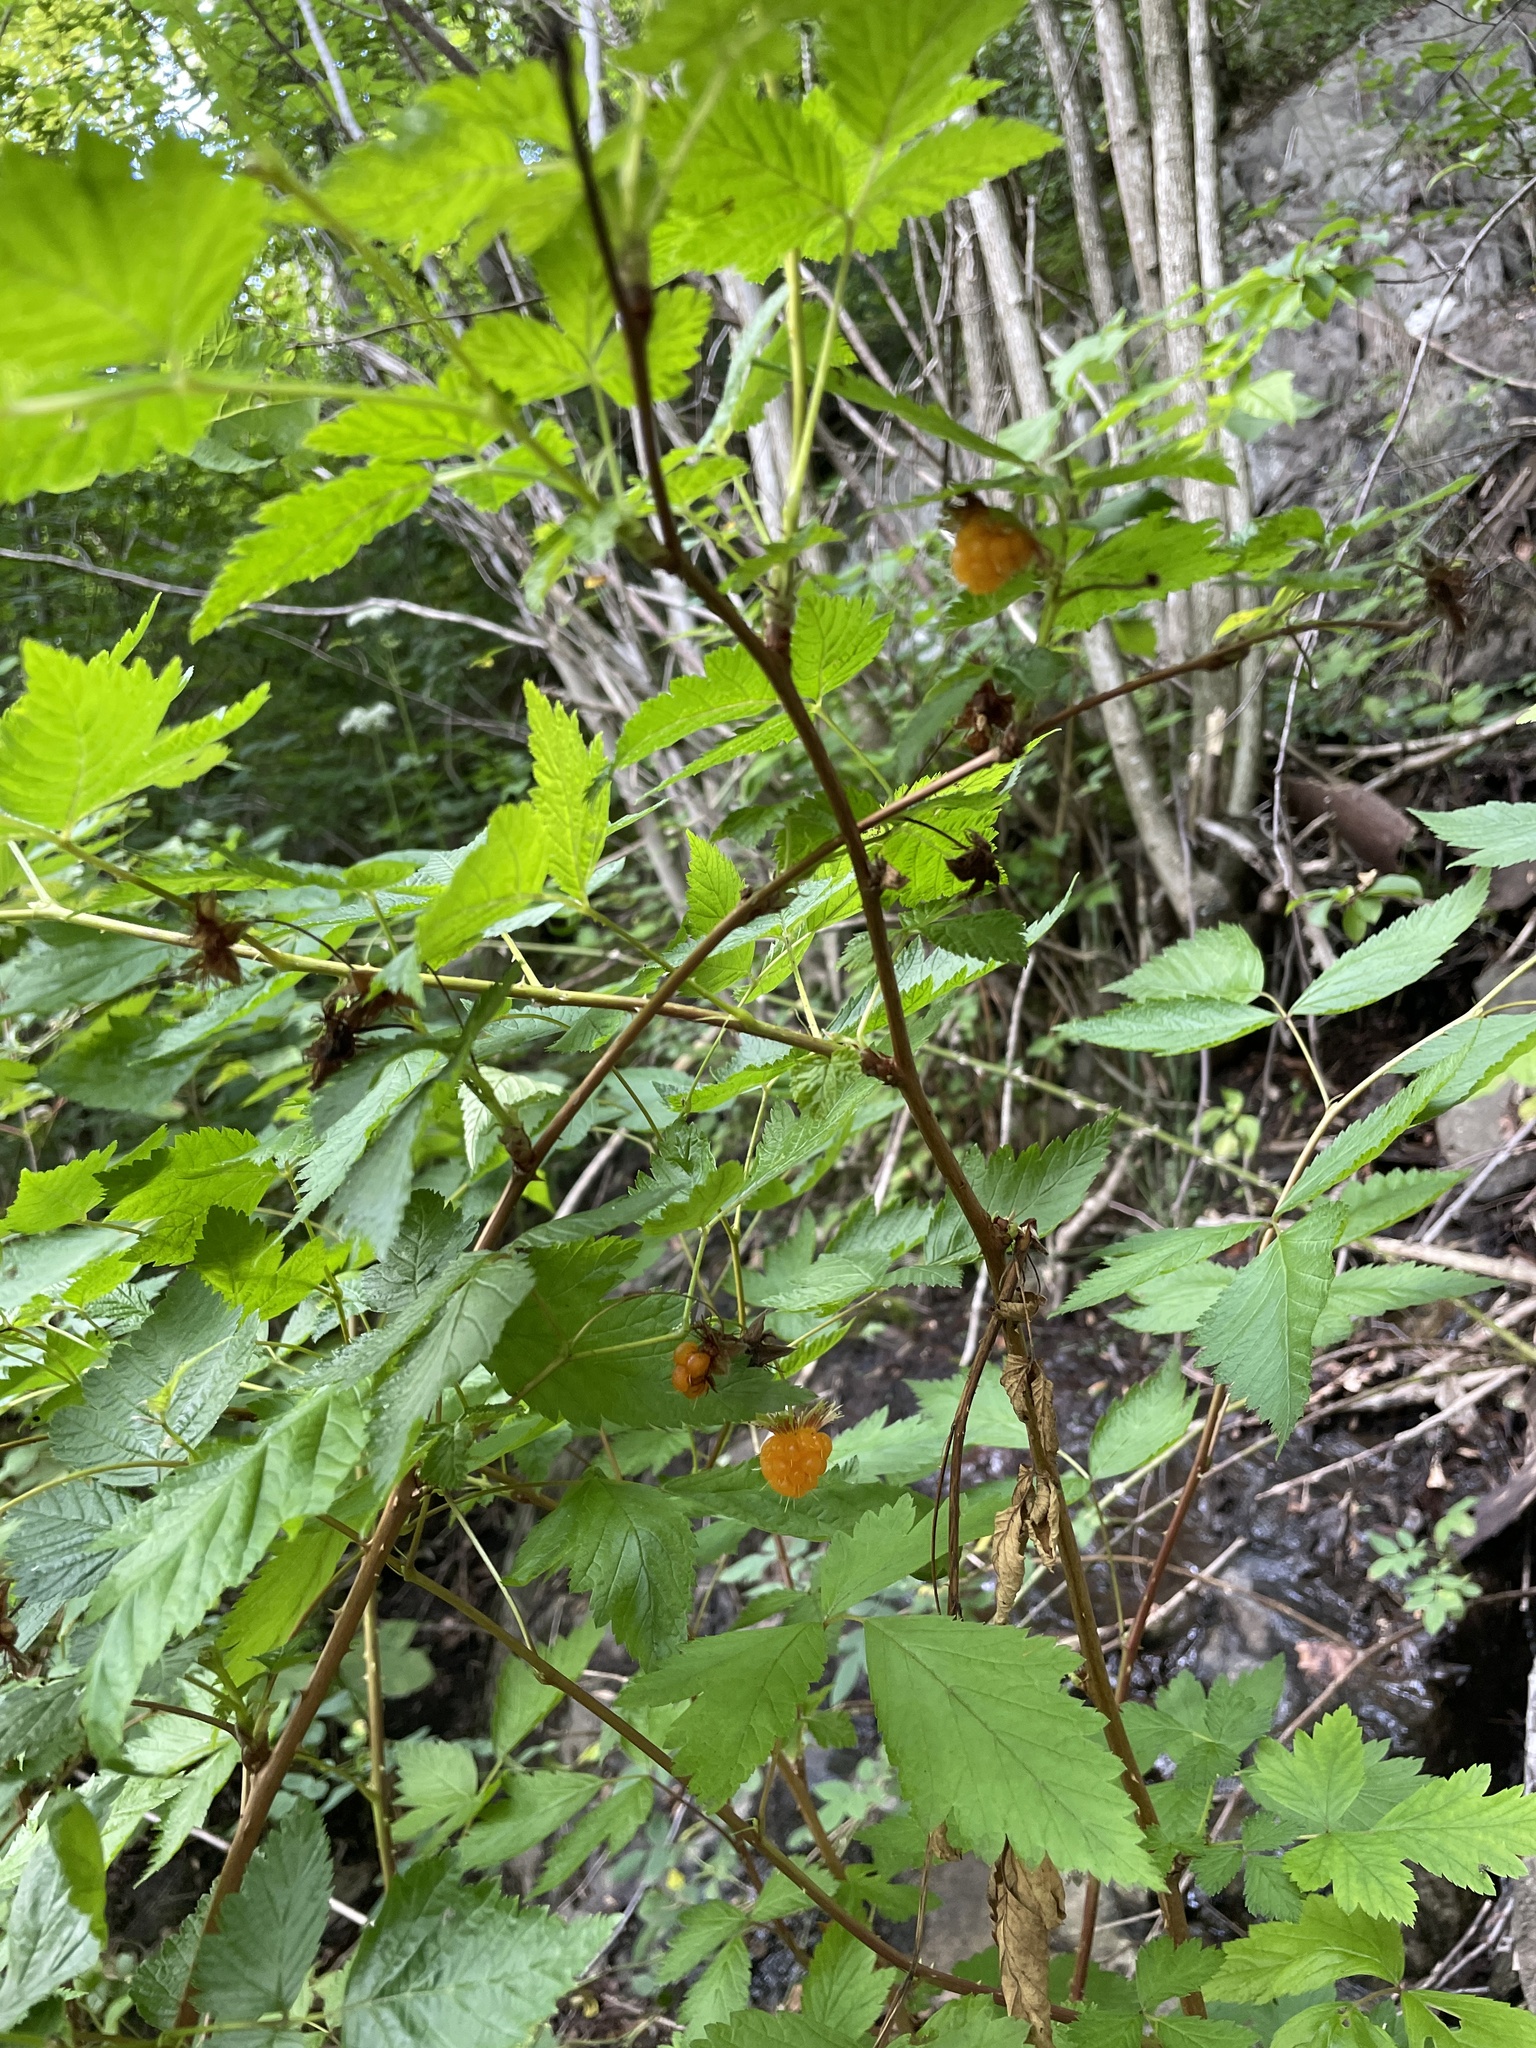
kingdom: Plantae
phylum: Tracheophyta
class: Magnoliopsida
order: Rosales
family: Rosaceae
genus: Rubus
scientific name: Rubus spectabilis
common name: Salmonberry
